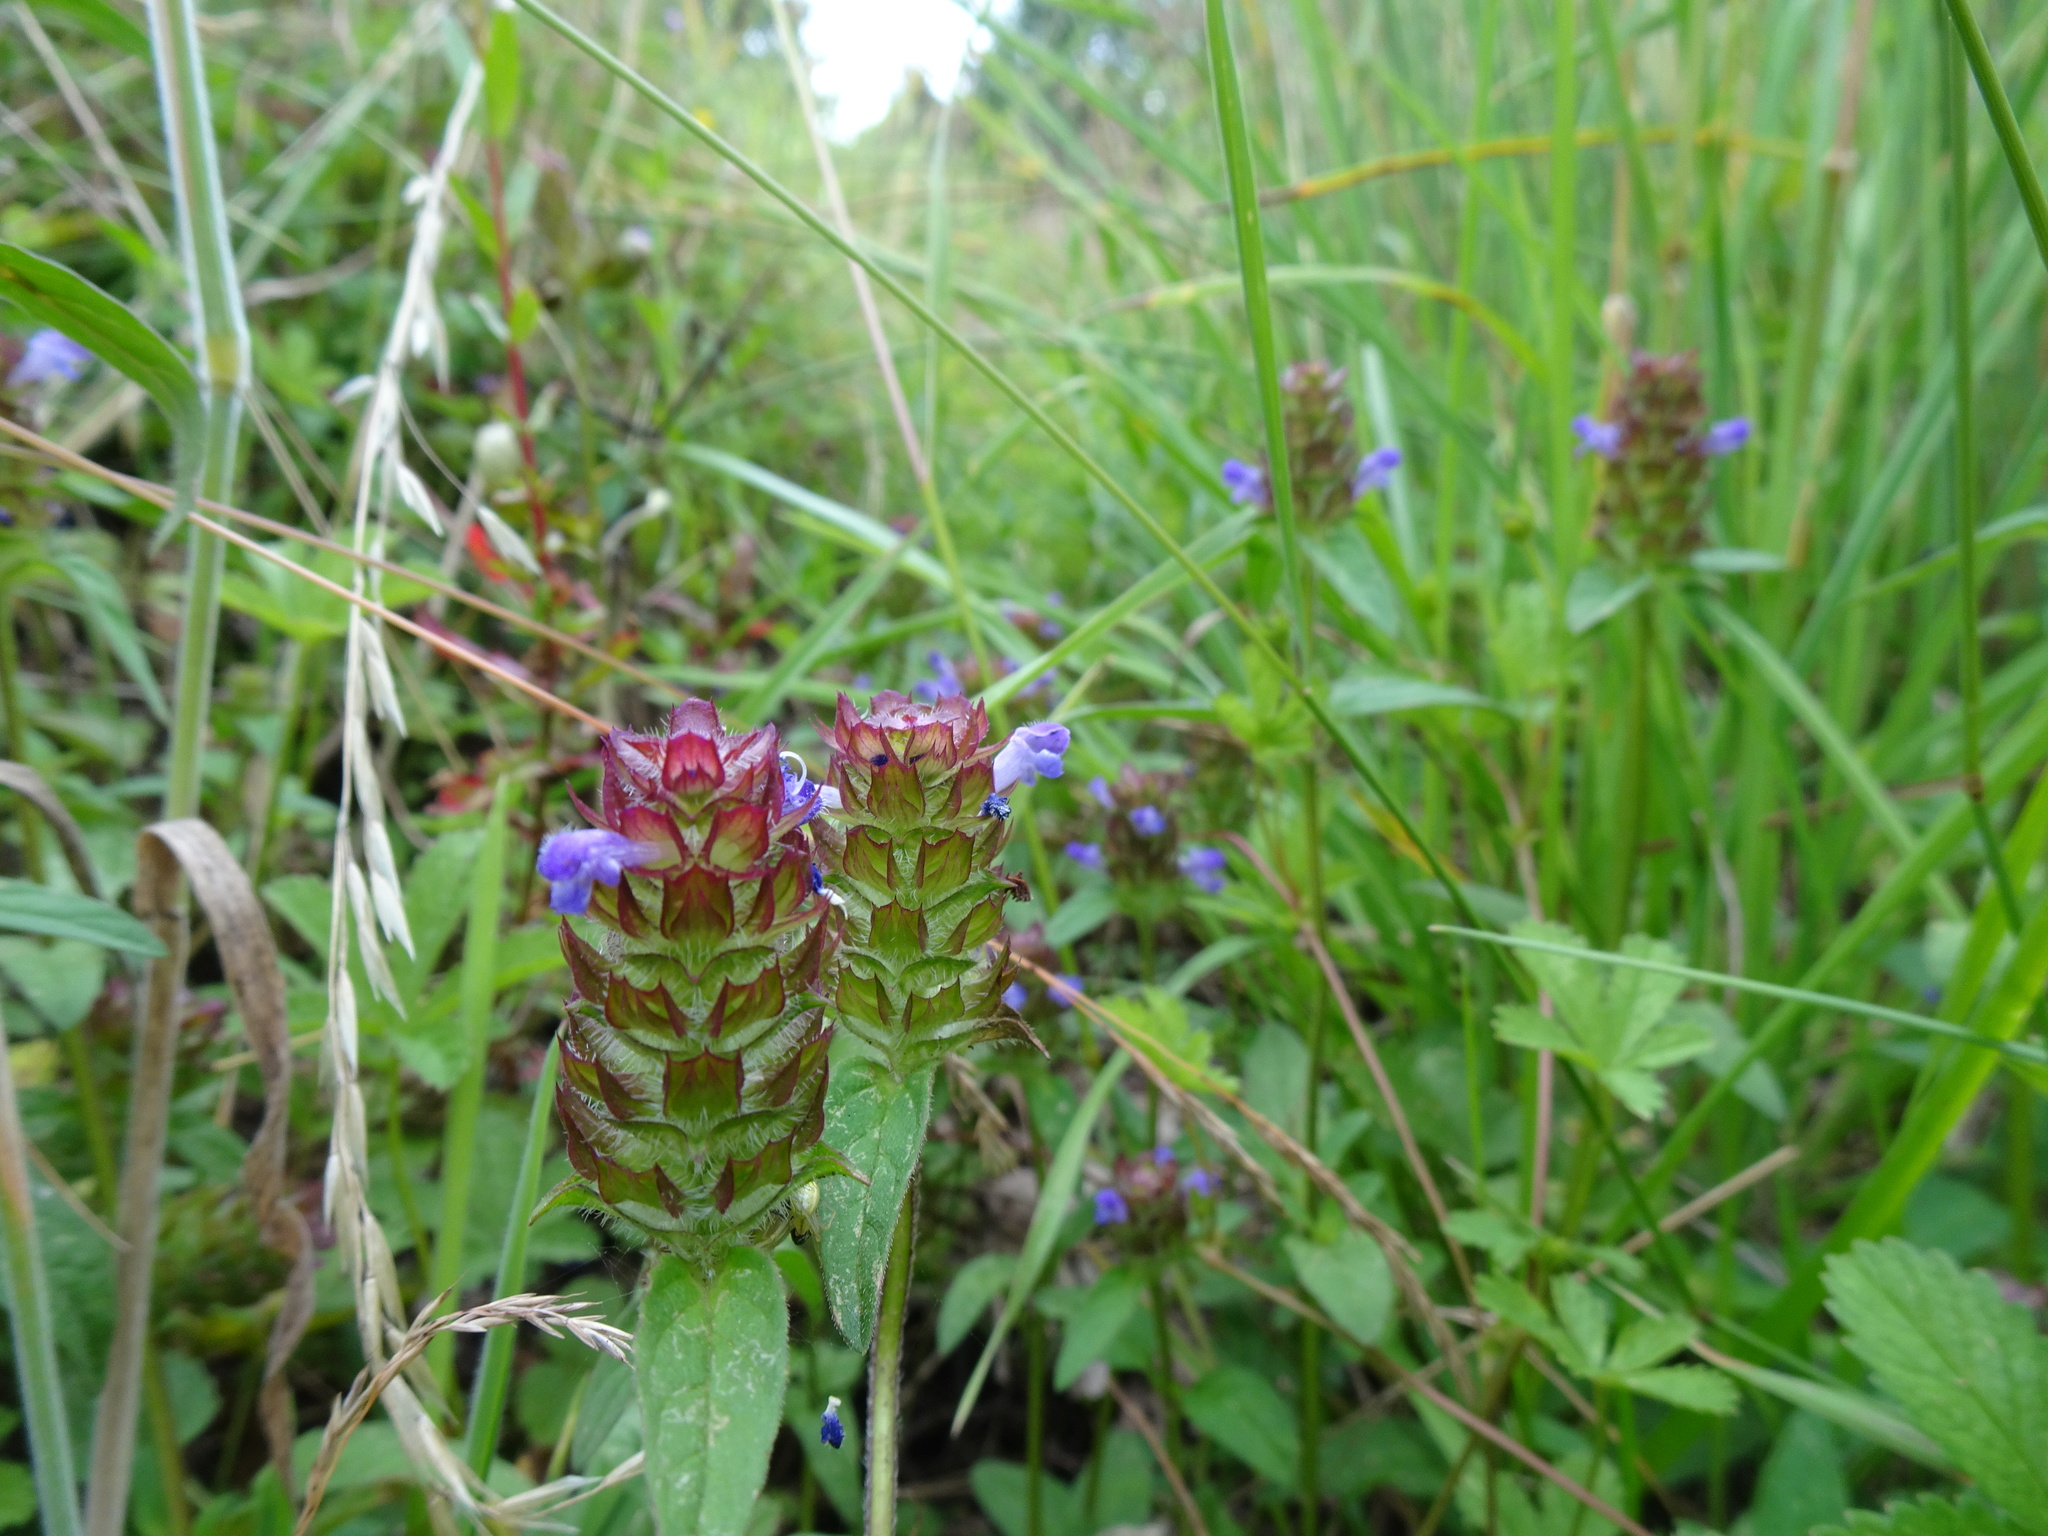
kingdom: Plantae
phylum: Tracheophyta
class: Magnoliopsida
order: Lamiales
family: Lamiaceae
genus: Prunella
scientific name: Prunella vulgaris
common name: Heal-all
